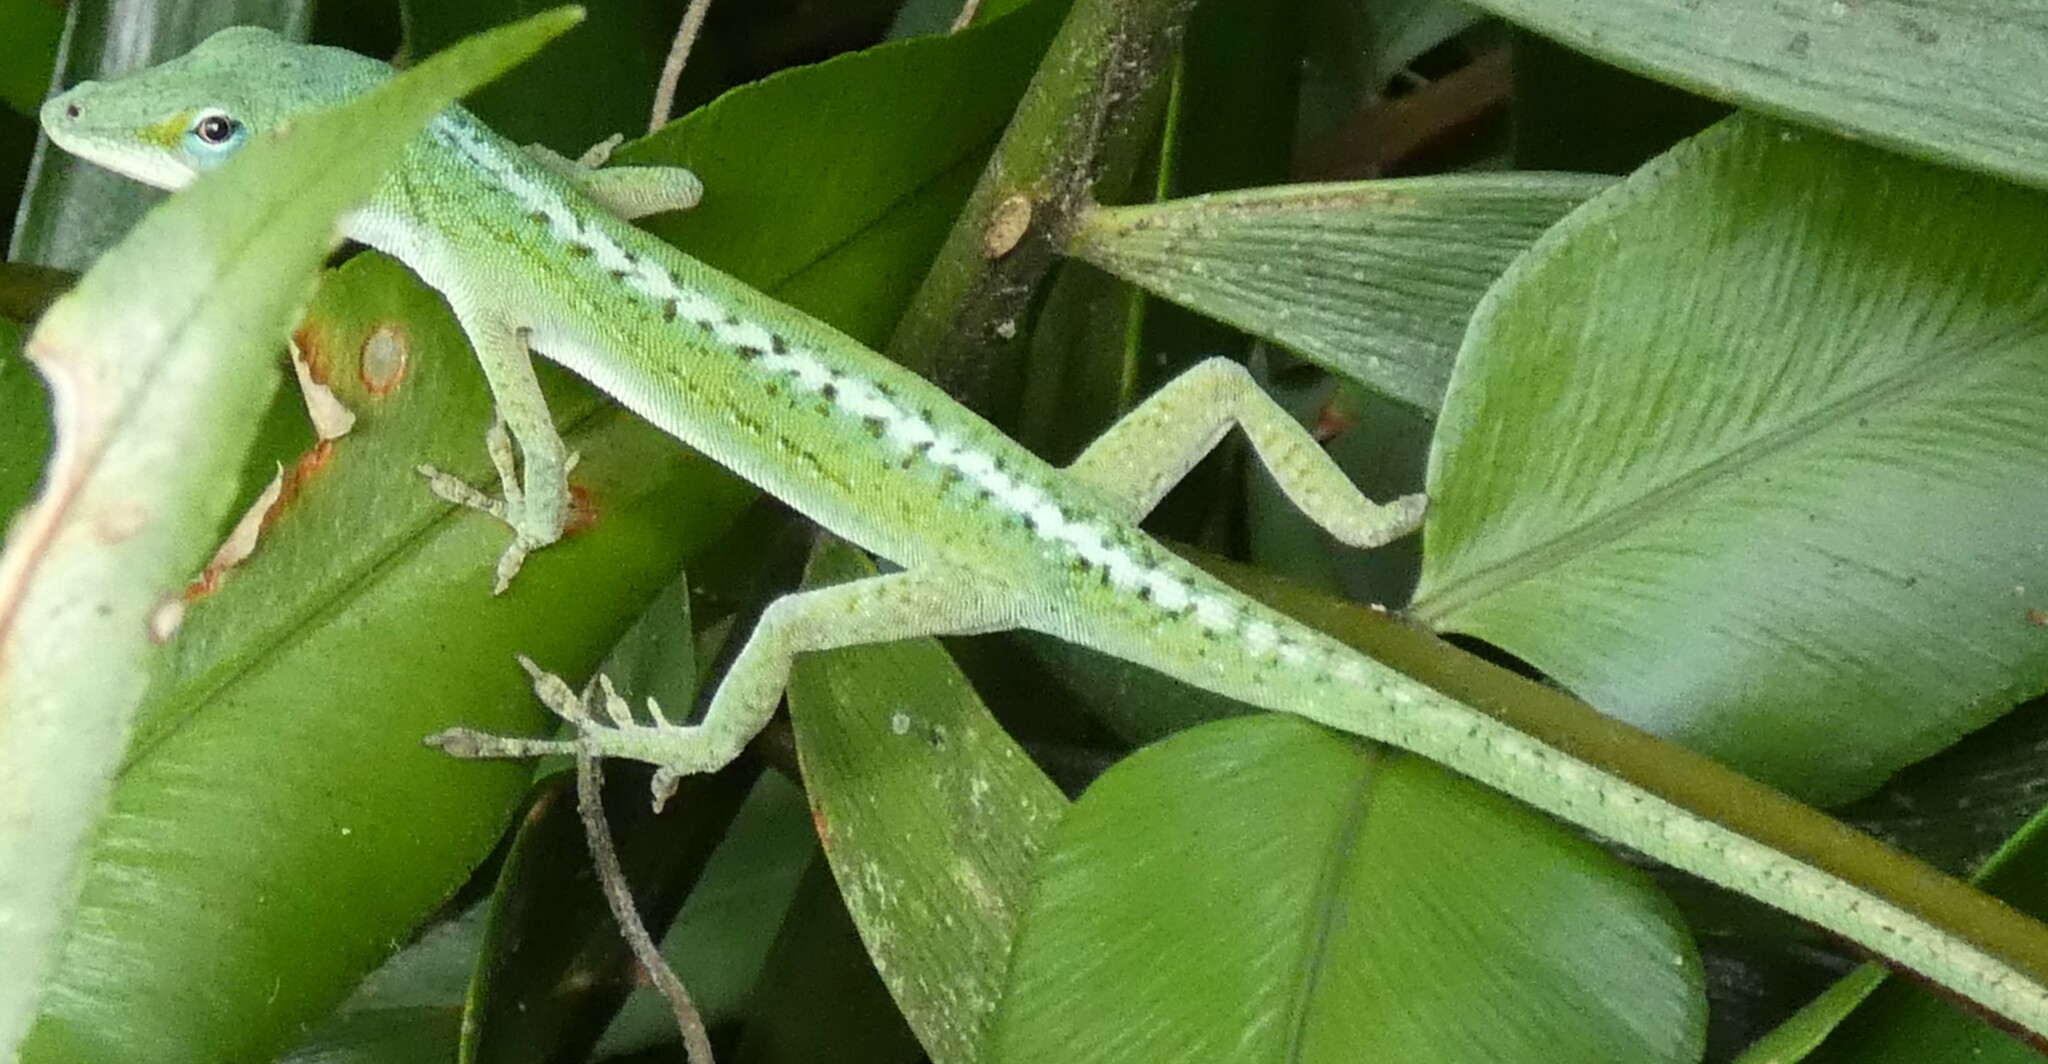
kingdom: Animalia
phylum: Chordata
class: Squamata
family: Dactyloidae
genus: Anolis
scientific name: Anolis carolinensis
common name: Green anole
